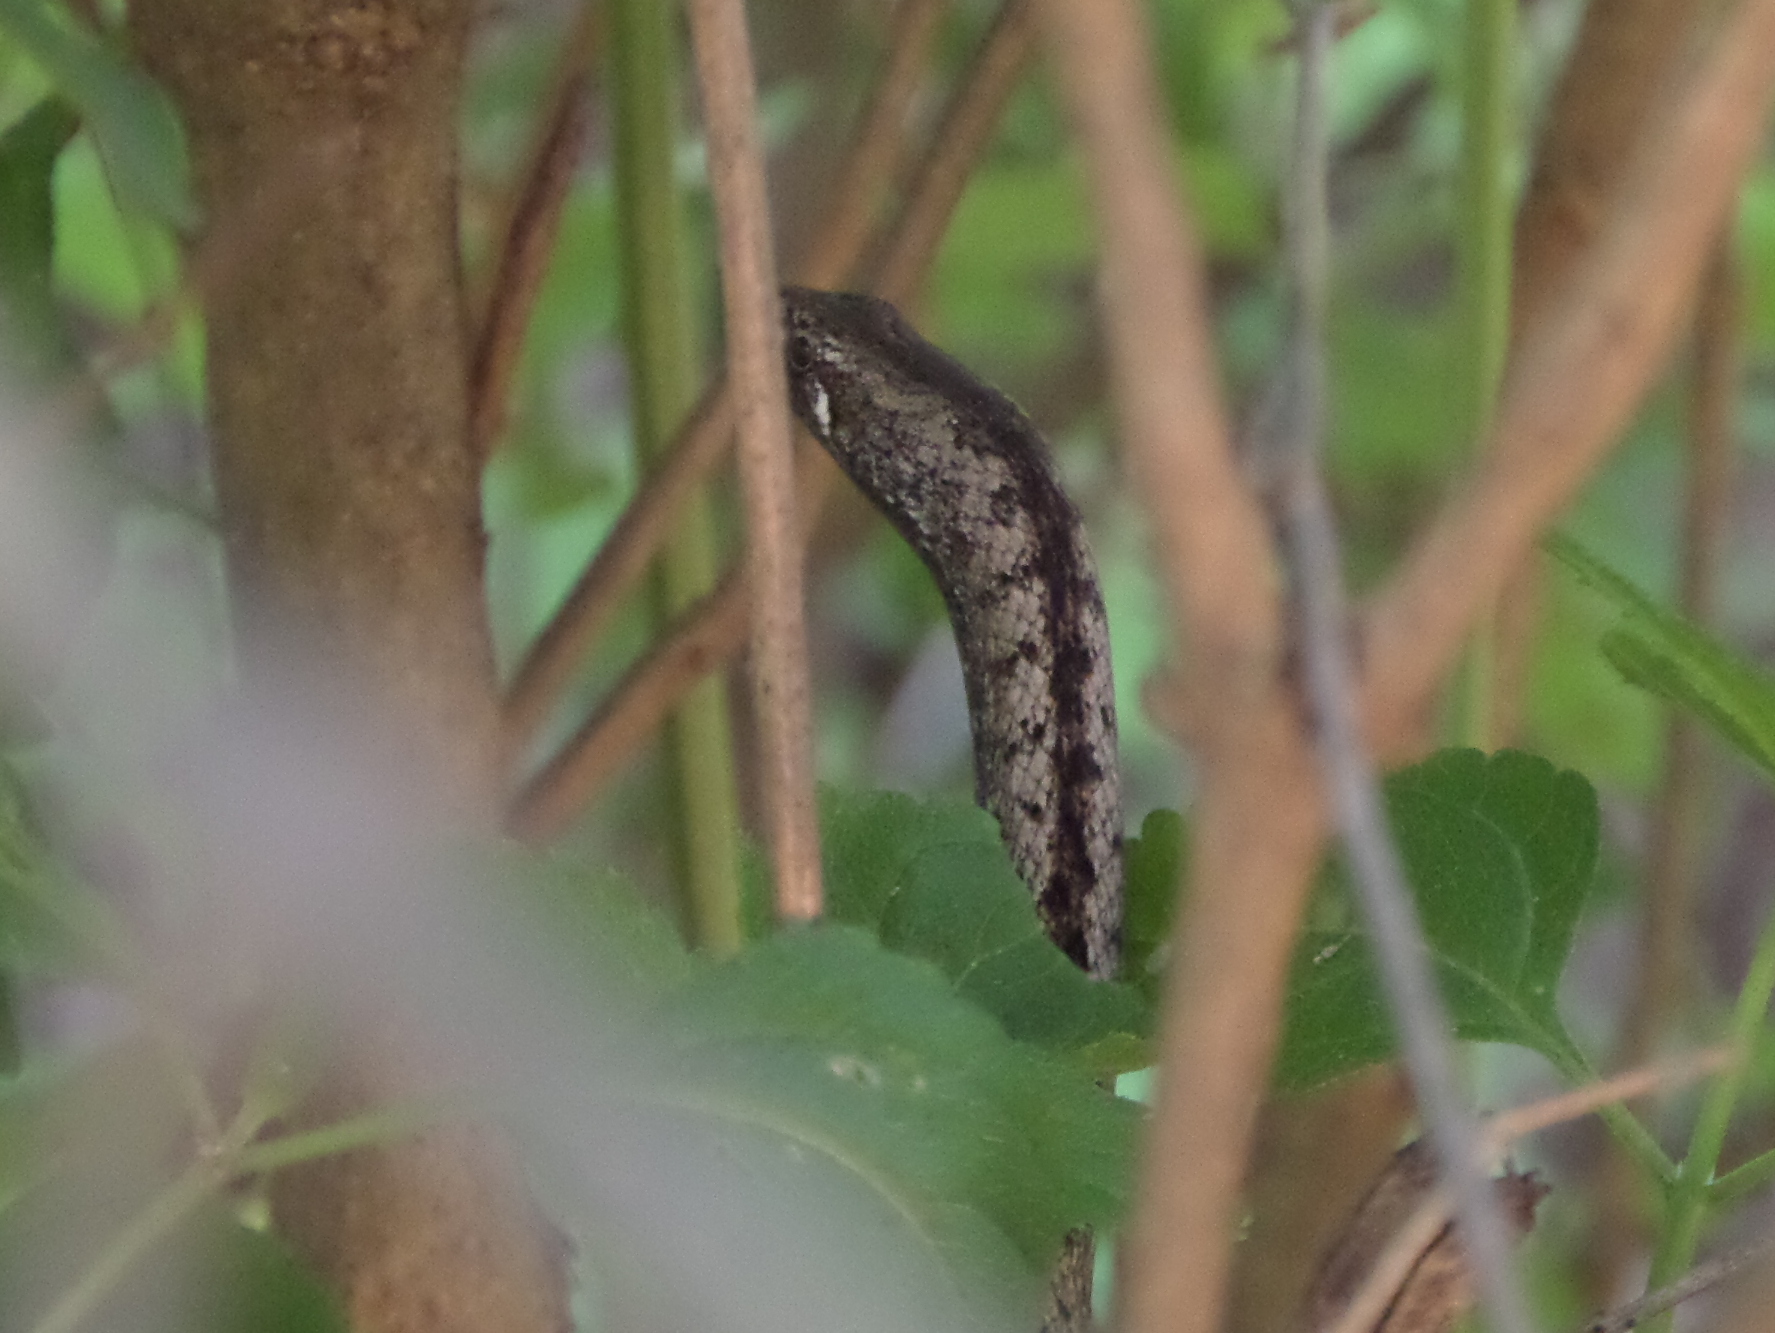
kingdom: Animalia
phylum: Chordata
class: Squamata
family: Colubridae
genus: Manolepis
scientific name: Manolepis putnami
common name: Ridgehead snake
